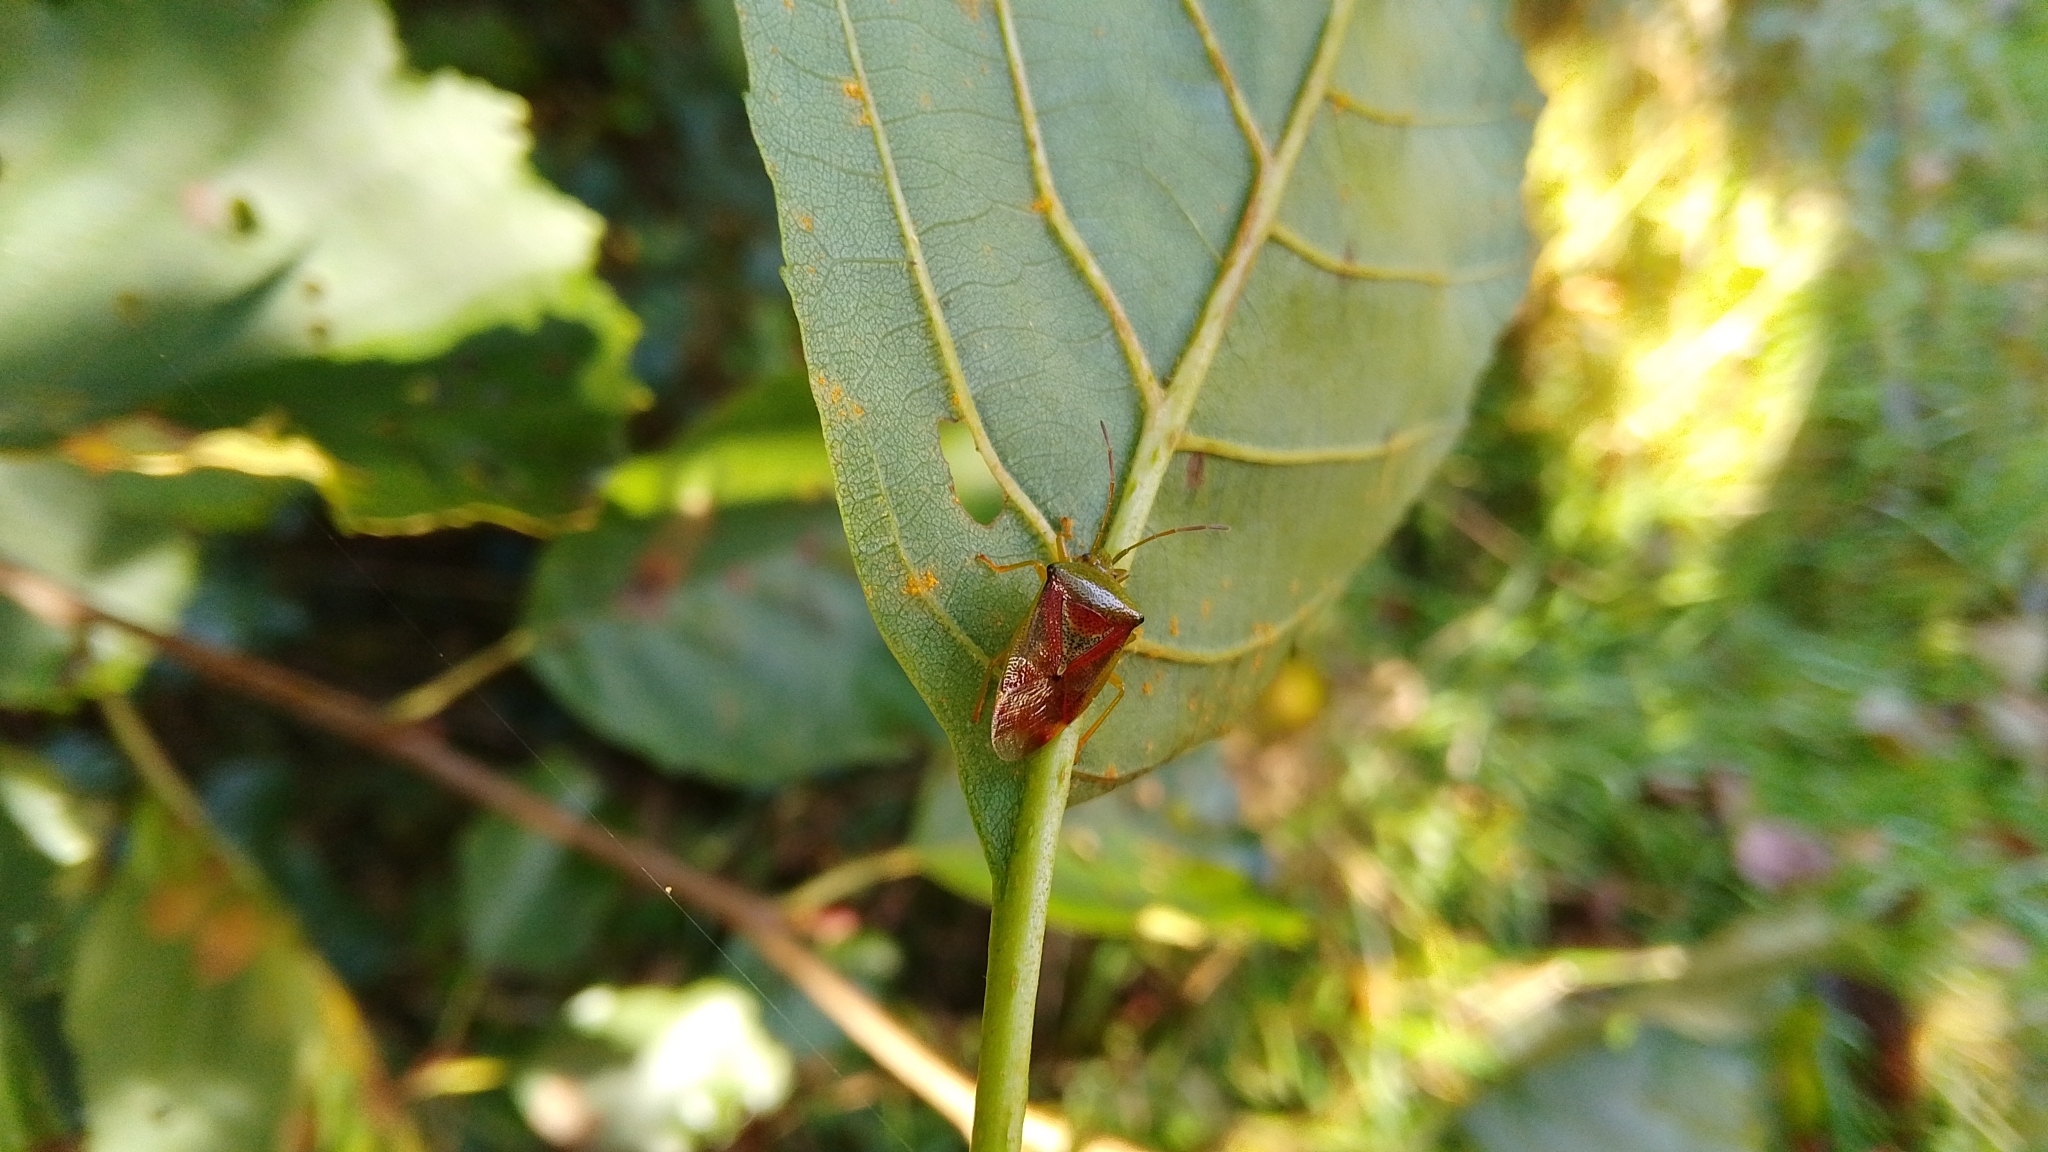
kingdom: Animalia
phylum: Arthropoda
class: Insecta
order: Hemiptera
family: Acanthosomatidae
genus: Elasmostethus
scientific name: Elasmostethus interstinctus
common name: Birch shieldbug
